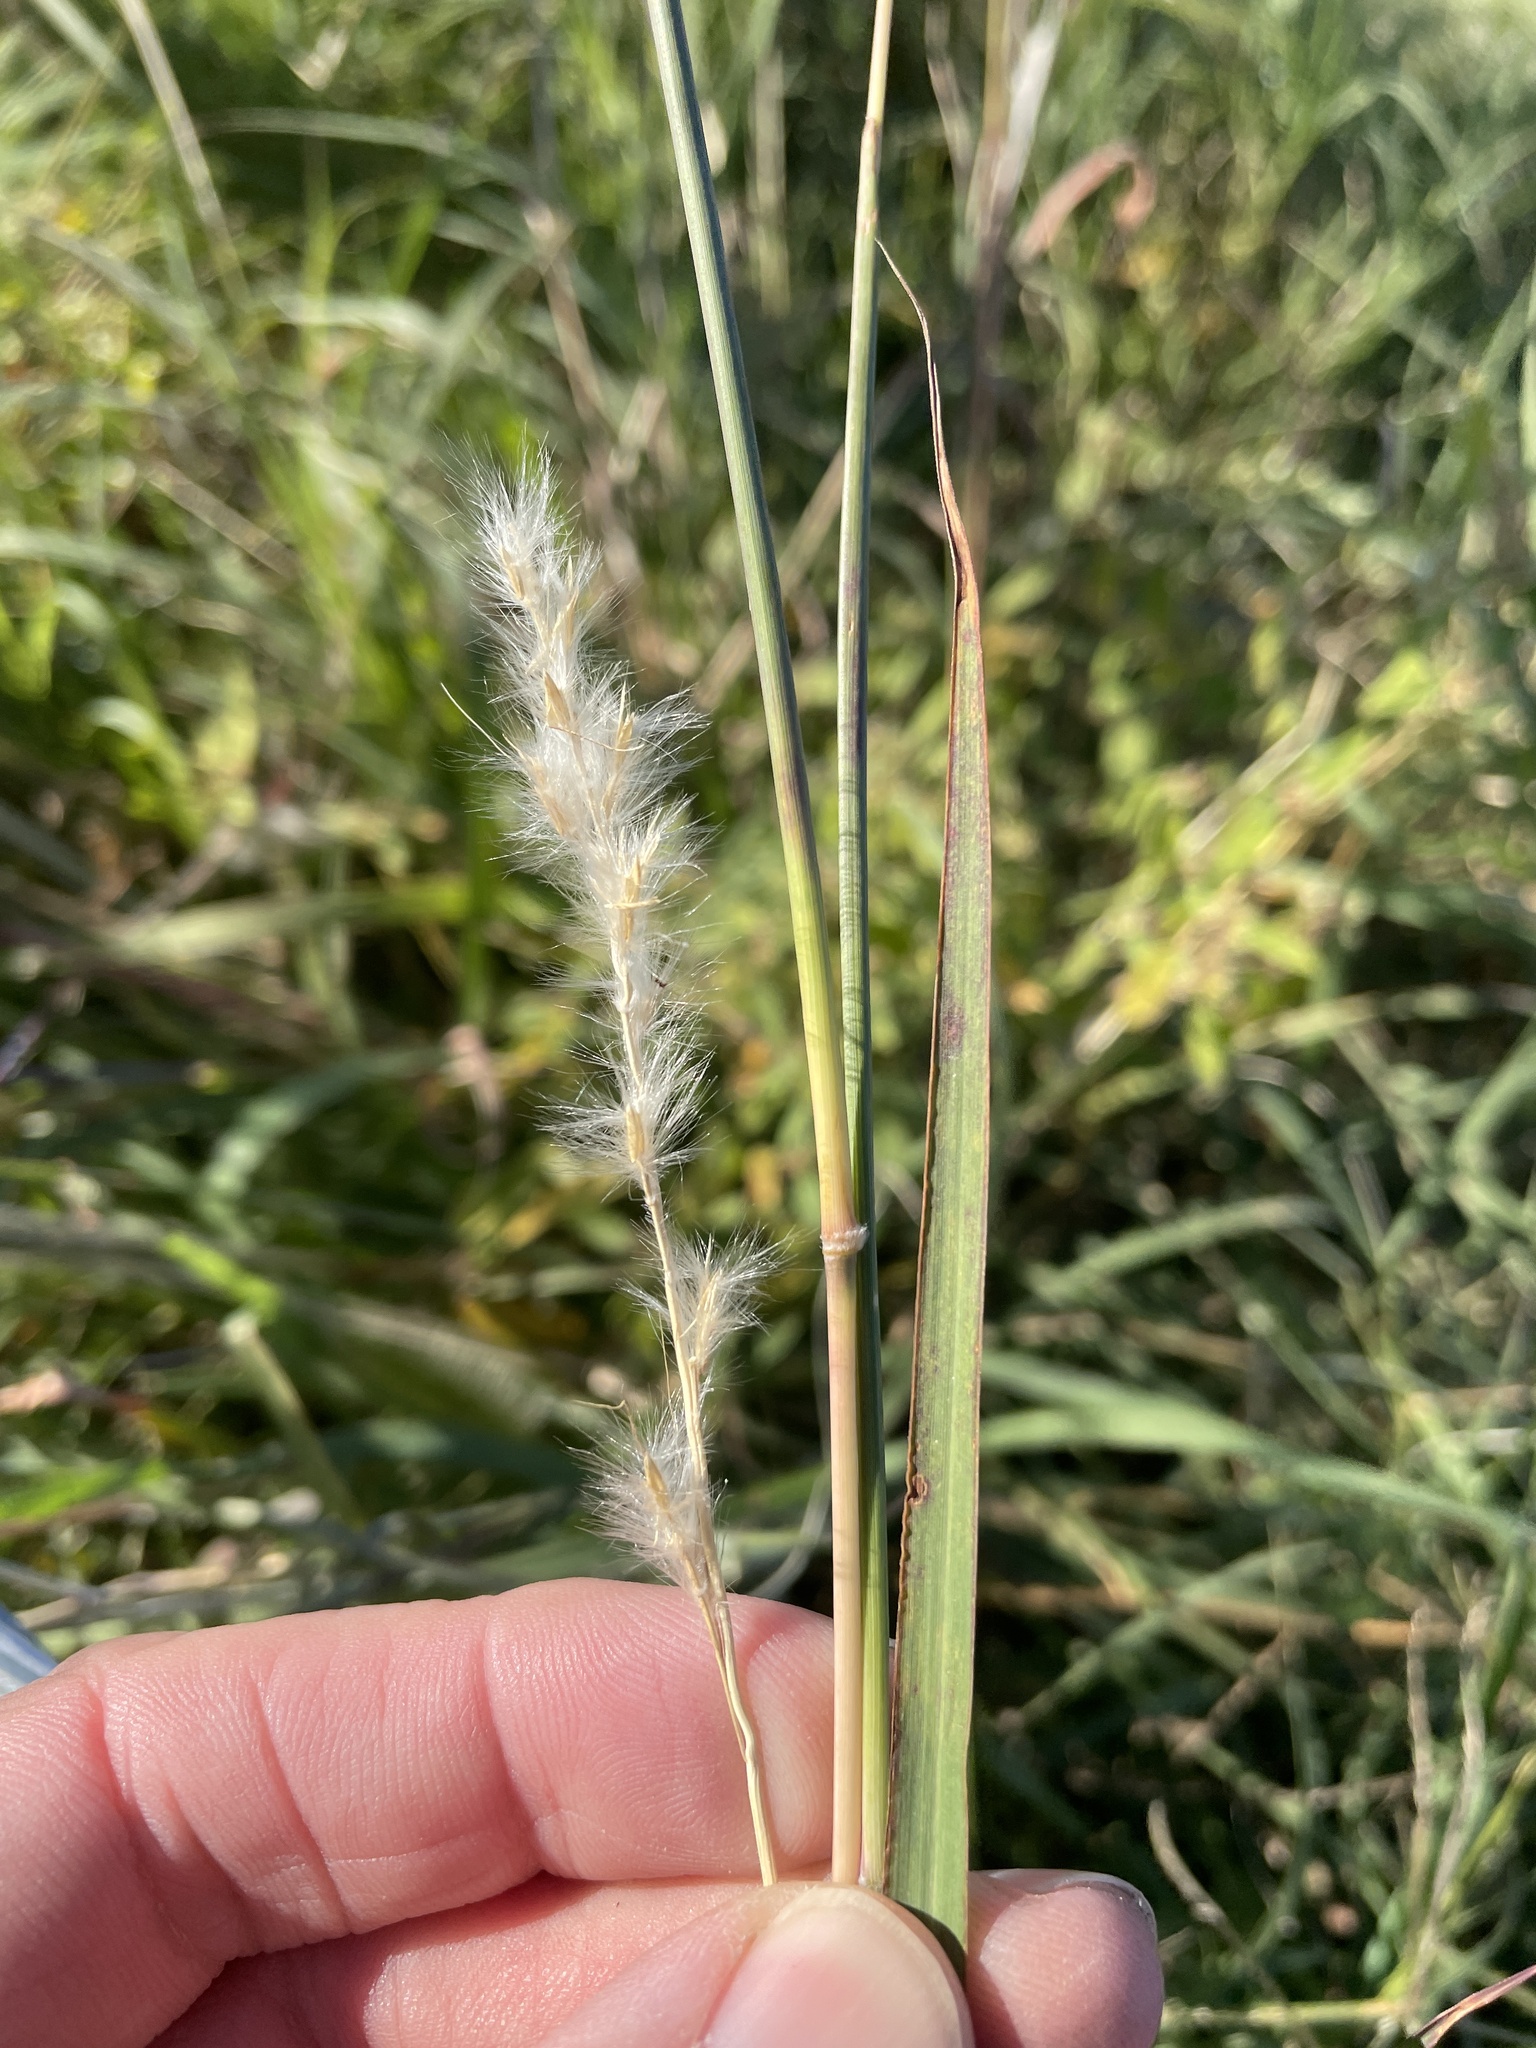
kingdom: Plantae
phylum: Tracheophyta
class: Liliopsida
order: Poales
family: Poaceae
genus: Bothriochloa
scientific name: Bothriochloa torreyana
